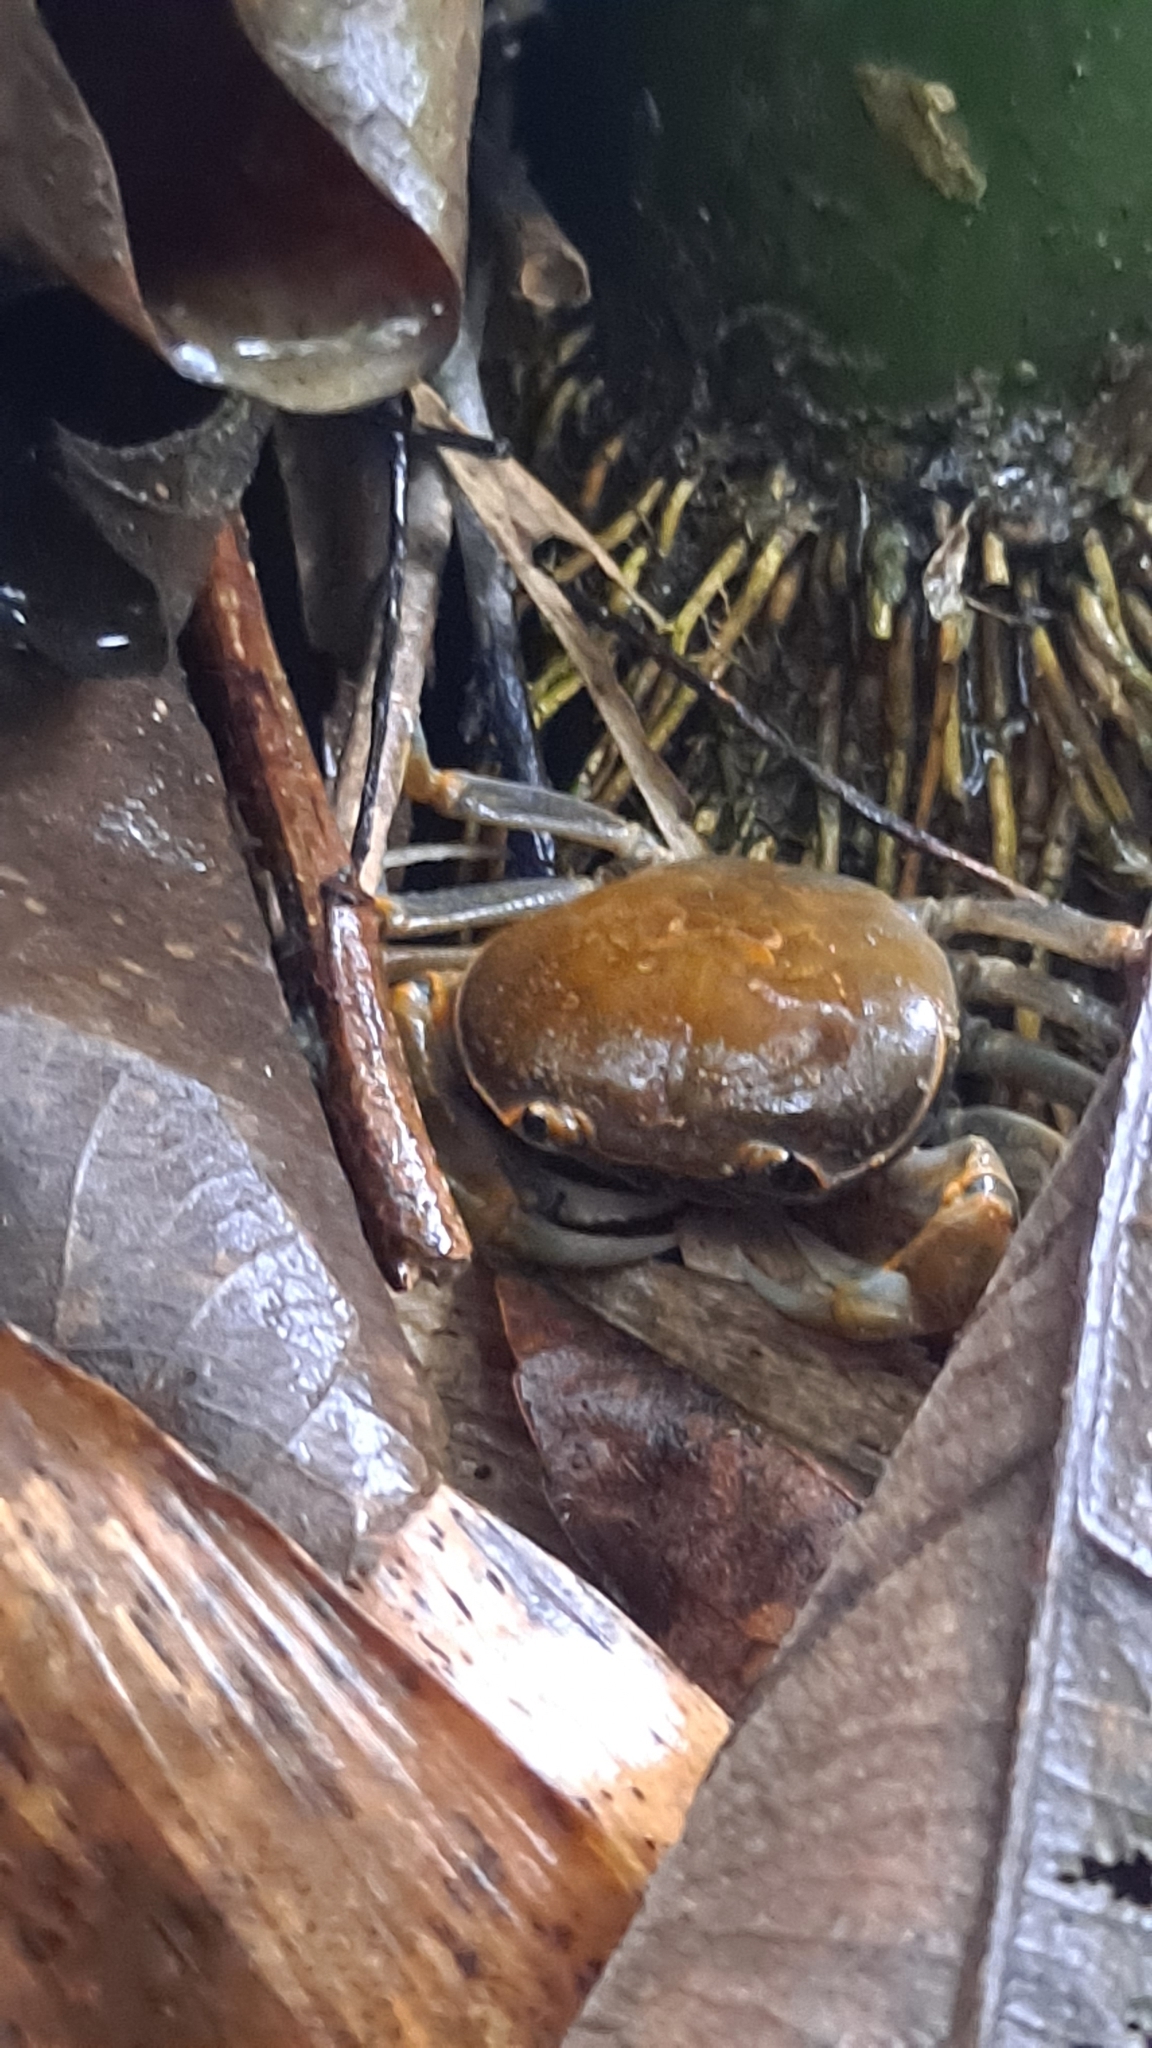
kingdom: Animalia
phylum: Arthropoda
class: Malacostraca
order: Decapoda
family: Potamidae
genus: Geothelphusa
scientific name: Geothelphusa olea
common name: Yellow-green crab
